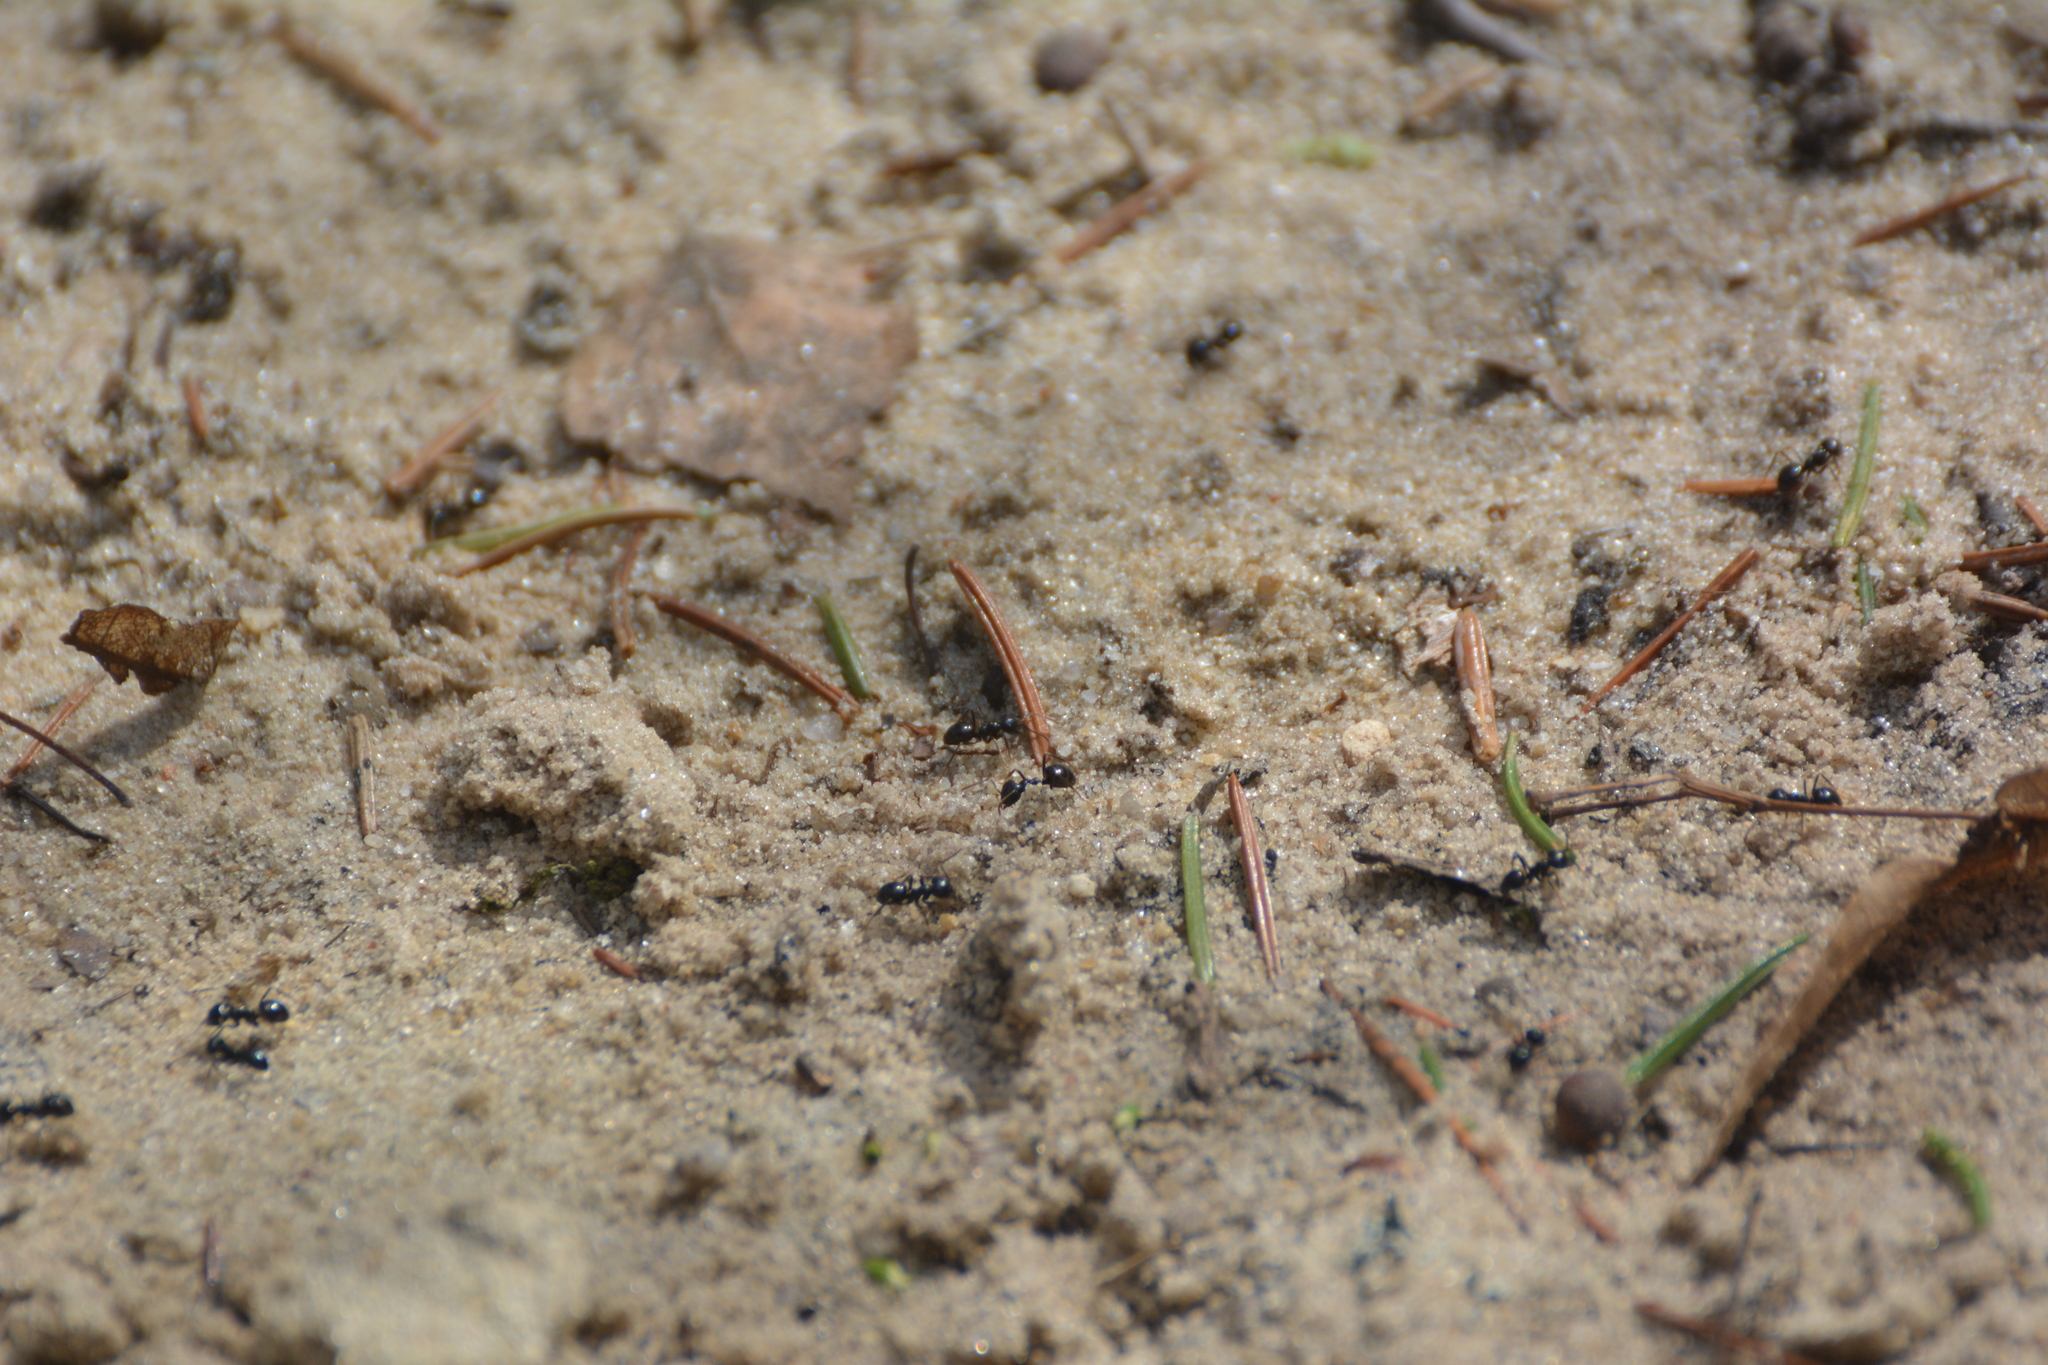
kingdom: Animalia
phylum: Arthropoda
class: Insecta
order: Hymenoptera
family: Formicidae
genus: Lasius
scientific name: Lasius fuliginosus
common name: Jet ant
